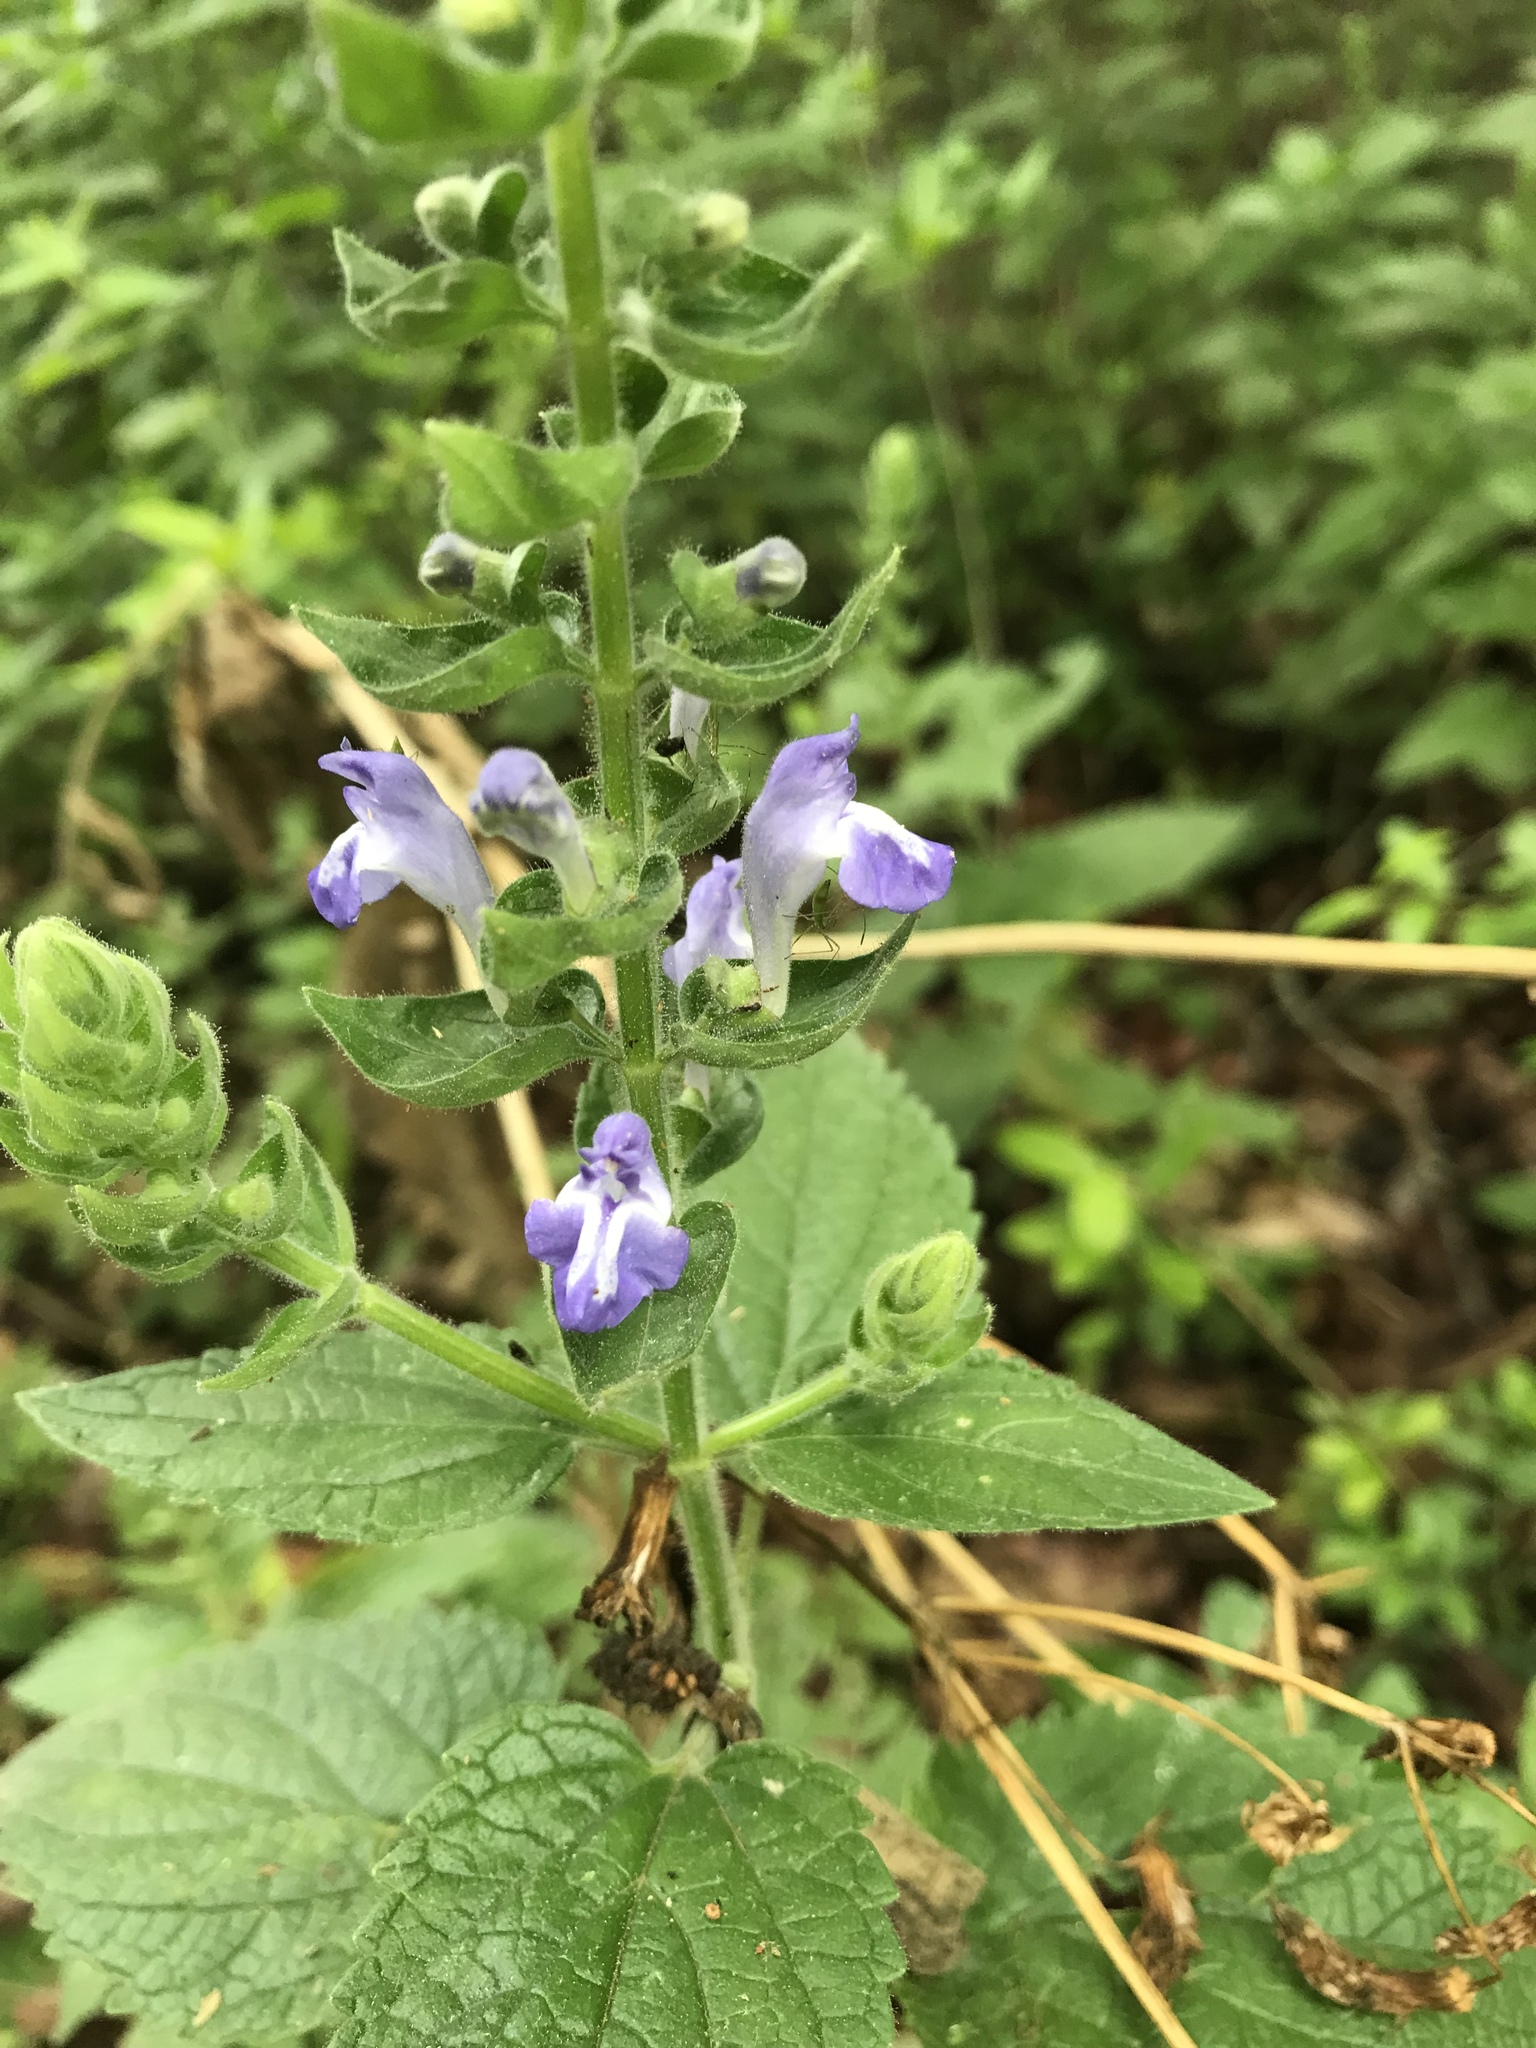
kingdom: Plantae
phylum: Tracheophyta
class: Magnoliopsida
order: Lamiales
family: Lamiaceae
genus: Scutellaria
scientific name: Scutellaria ovata
